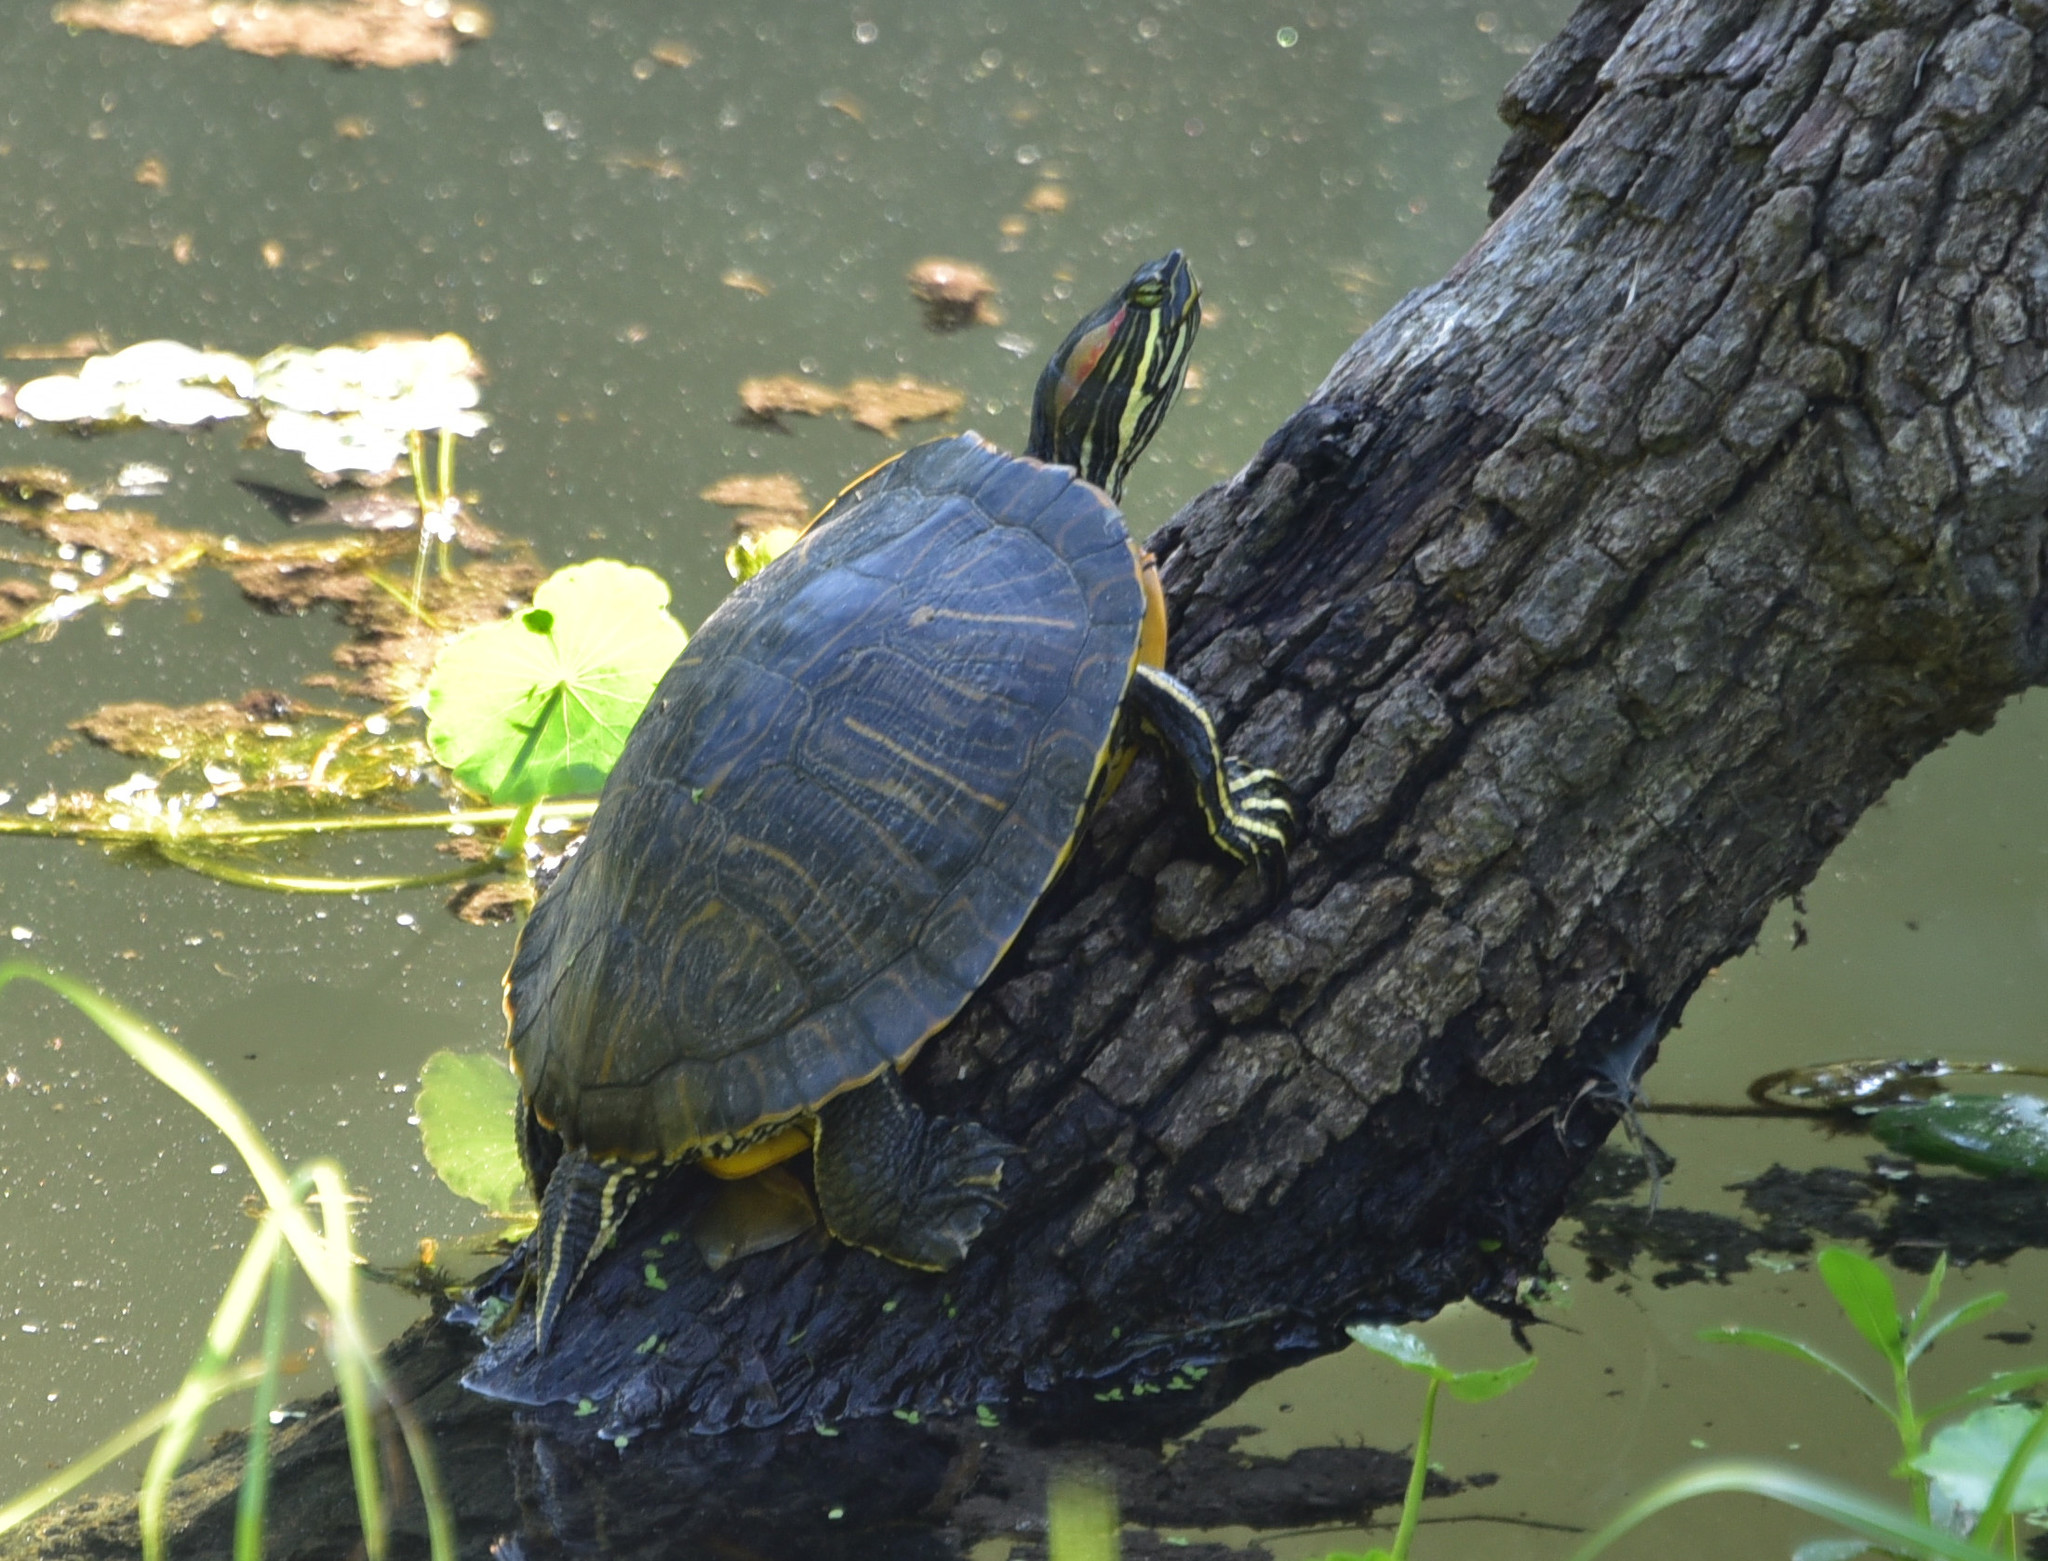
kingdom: Animalia
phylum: Chordata
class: Testudines
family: Emydidae
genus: Trachemys
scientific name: Trachemys scripta
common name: Slider
